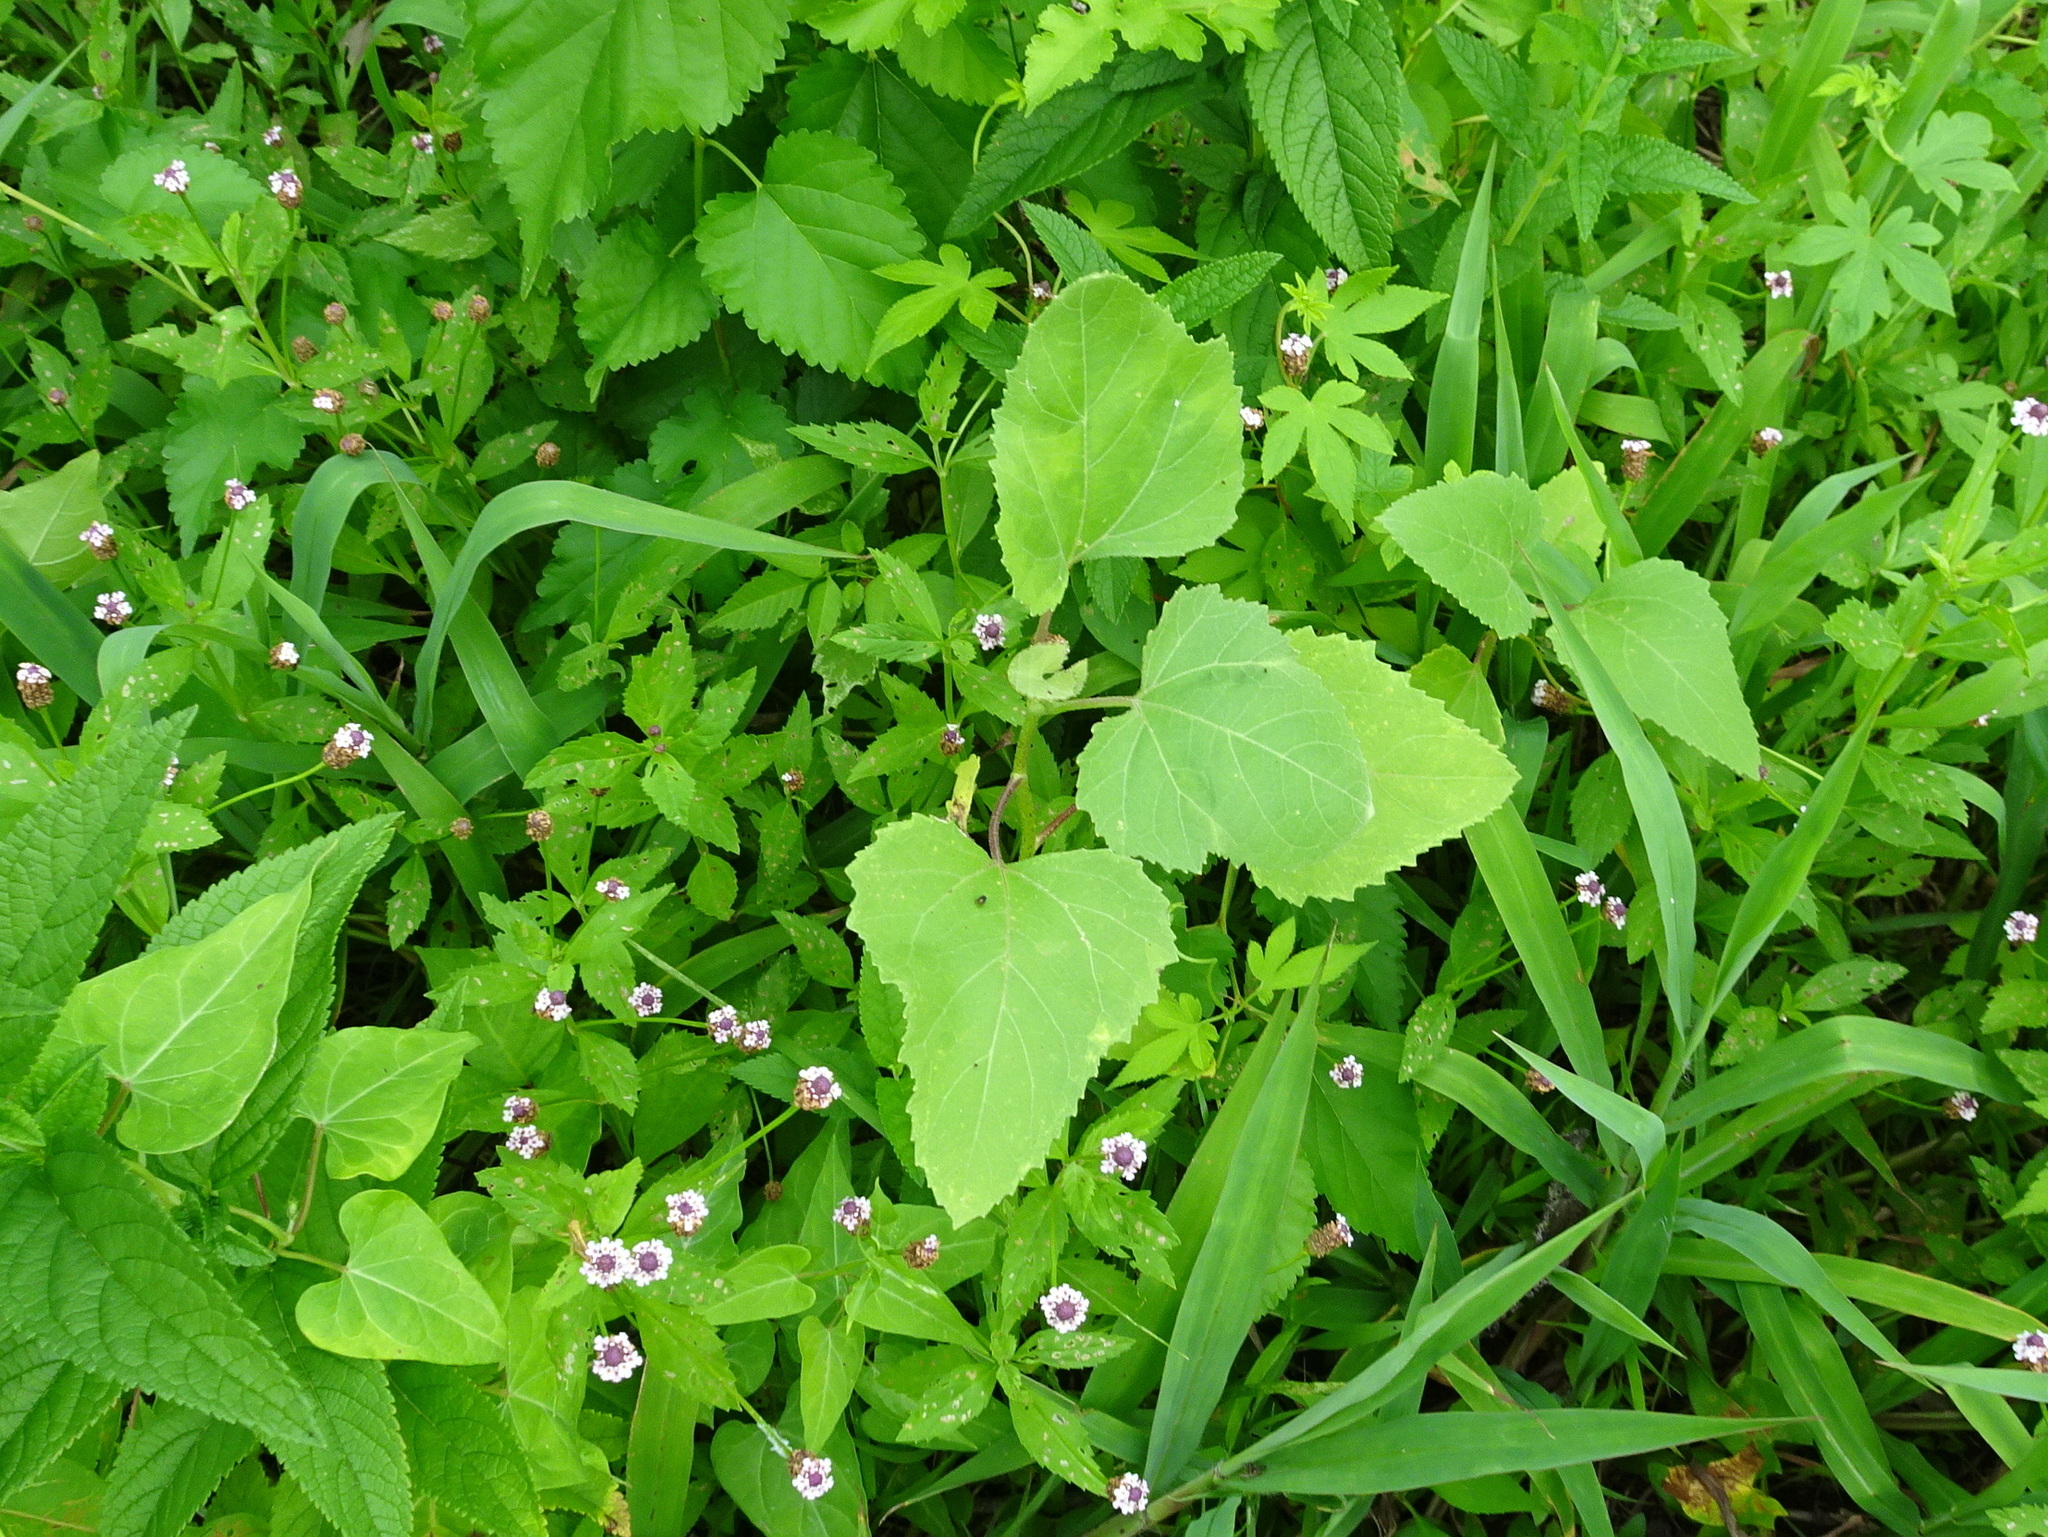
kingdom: Plantae
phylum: Tracheophyta
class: Magnoliopsida
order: Asterales
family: Asteraceae
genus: Xanthium
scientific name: Xanthium strumarium
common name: Rough cocklebur
